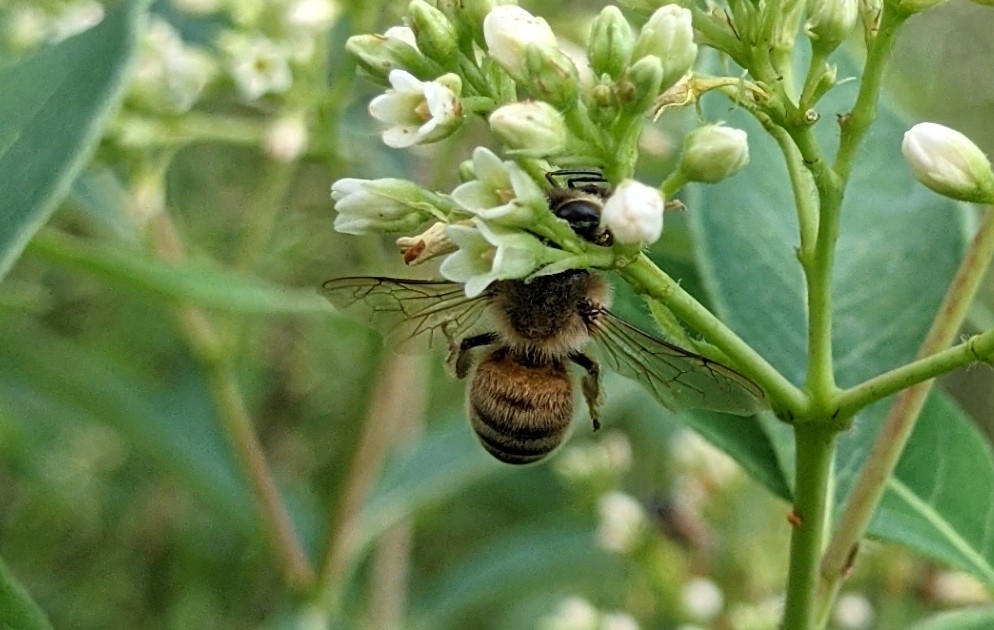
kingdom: Animalia
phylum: Arthropoda
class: Insecta
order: Hymenoptera
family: Apidae
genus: Apis
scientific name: Apis mellifera
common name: Honey bee
